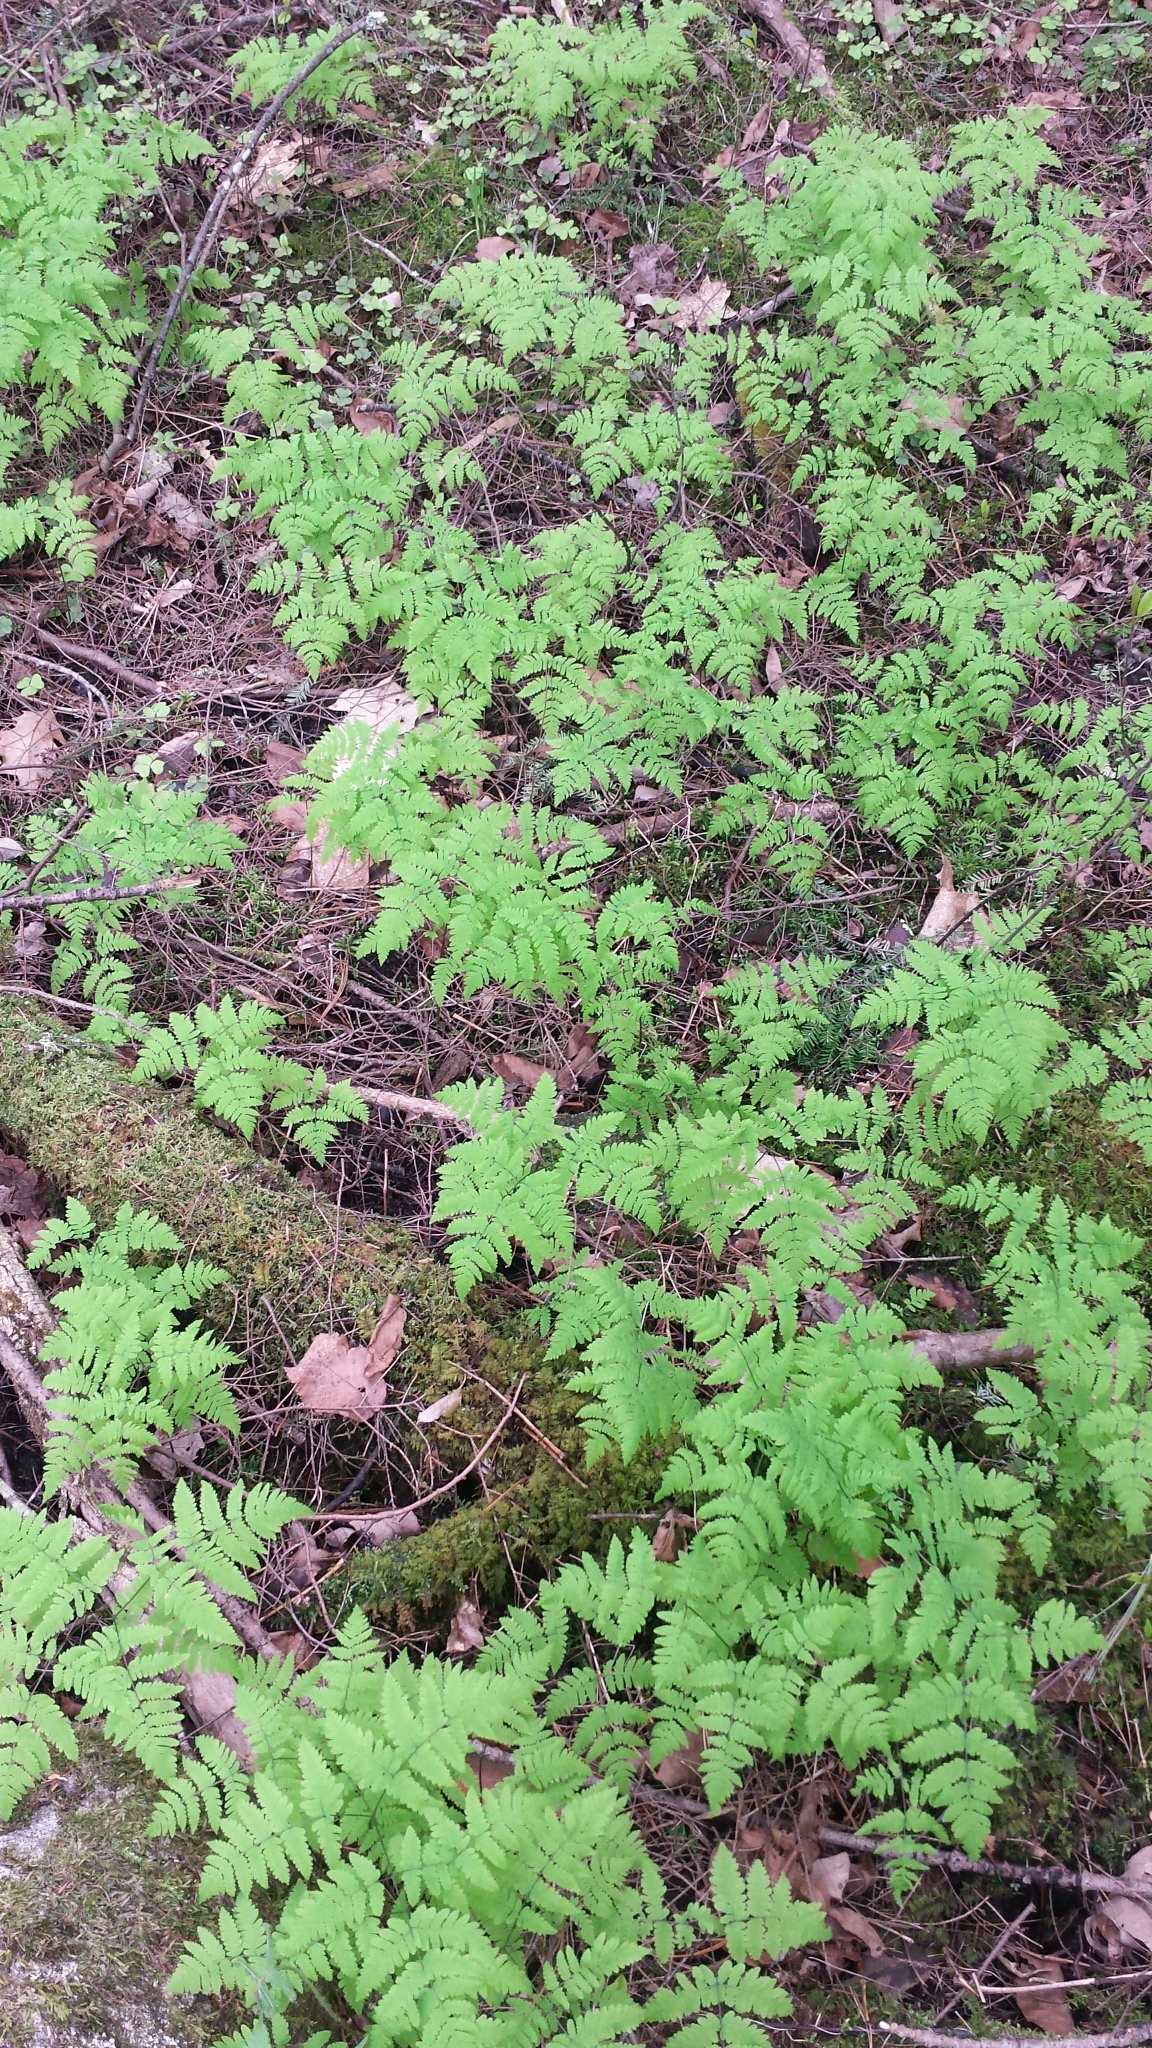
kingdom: Plantae
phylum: Tracheophyta
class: Polypodiopsida
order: Polypodiales
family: Cystopteridaceae
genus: Gymnocarpium
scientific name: Gymnocarpium dryopteris
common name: Oak fern
